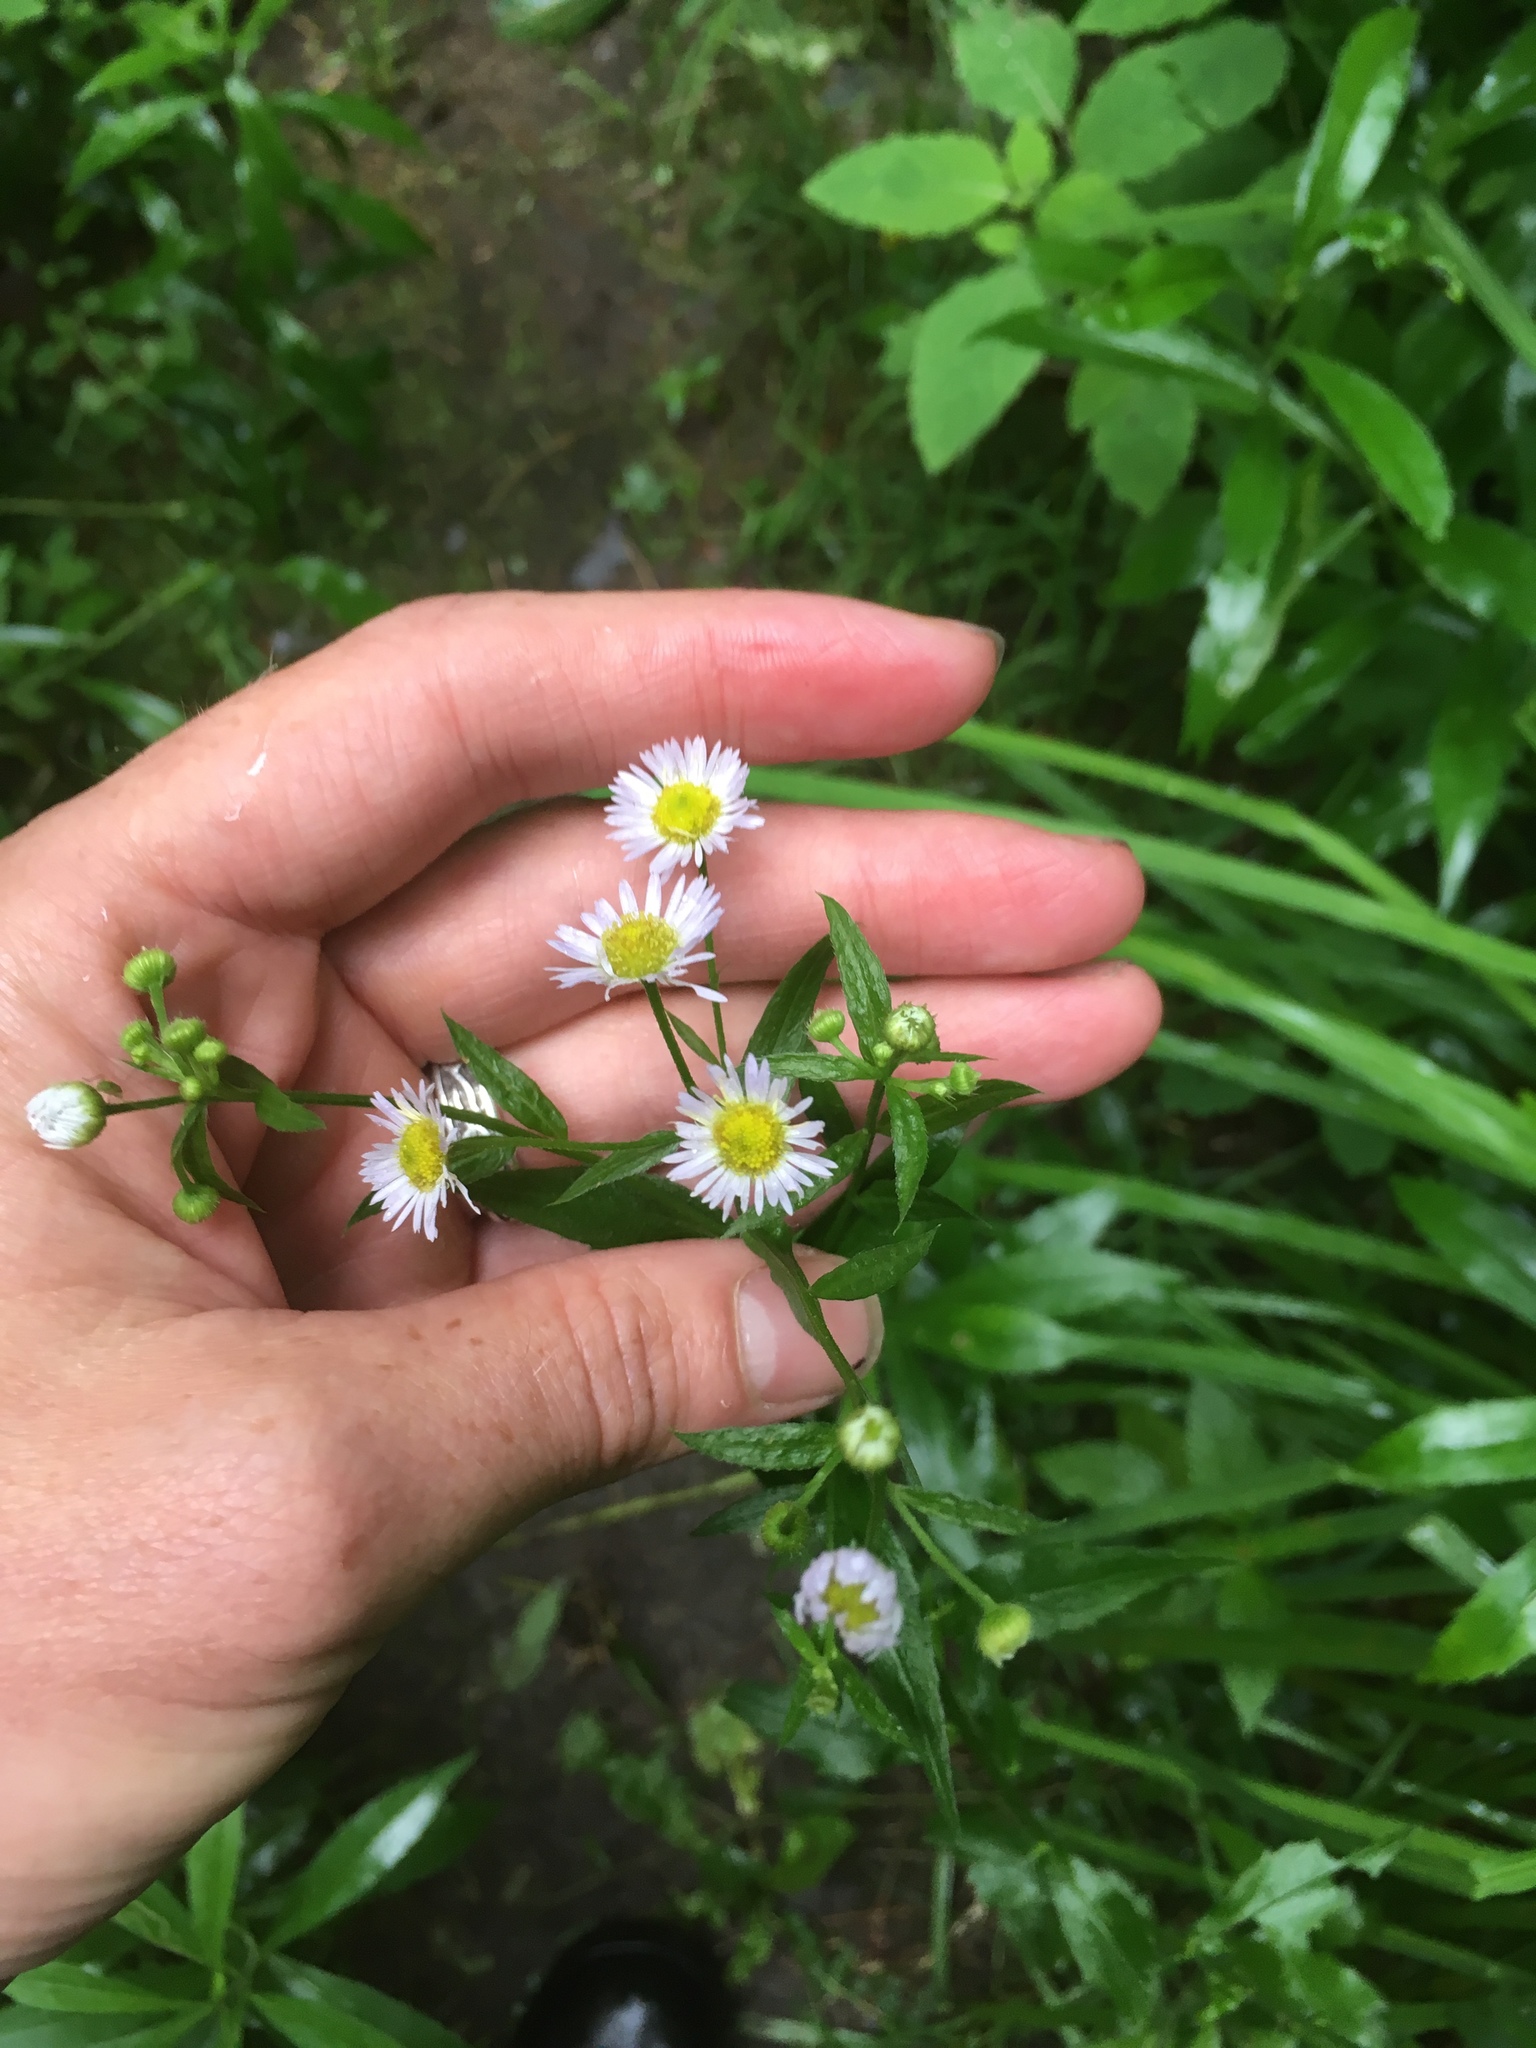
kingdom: Plantae
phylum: Tracheophyta
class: Magnoliopsida
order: Asterales
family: Asteraceae
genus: Erigeron
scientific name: Erigeron annuus
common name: Tall fleabane
